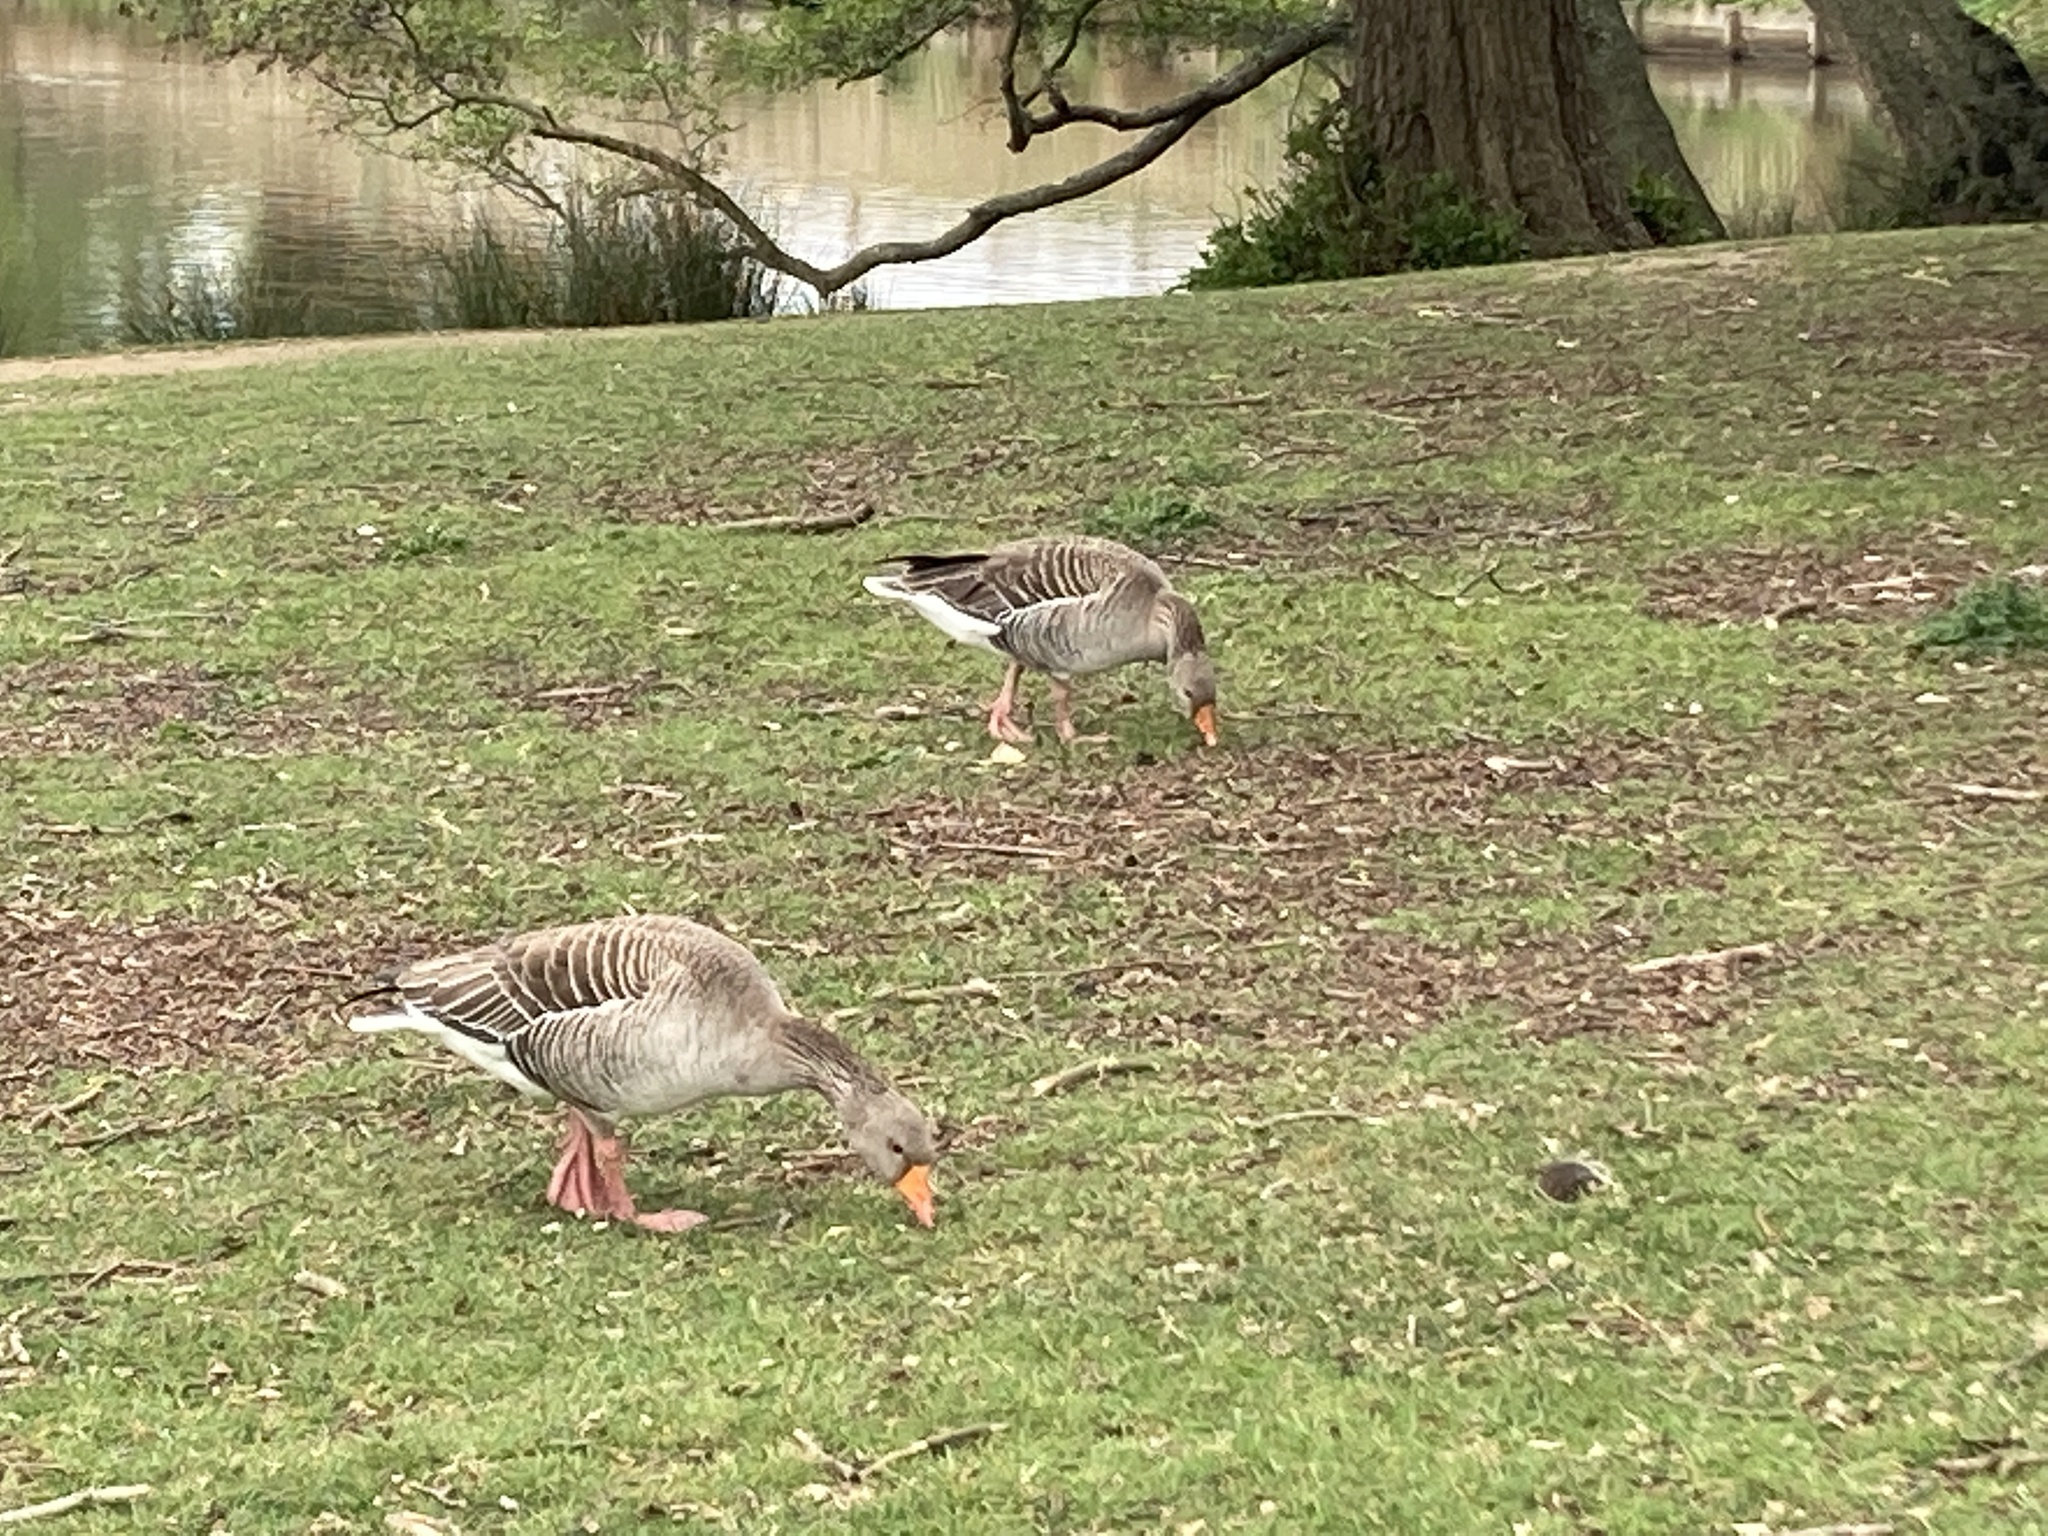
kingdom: Animalia
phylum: Chordata
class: Aves
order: Anseriformes
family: Anatidae
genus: Anser
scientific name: Anser anser
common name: Greylag goose
